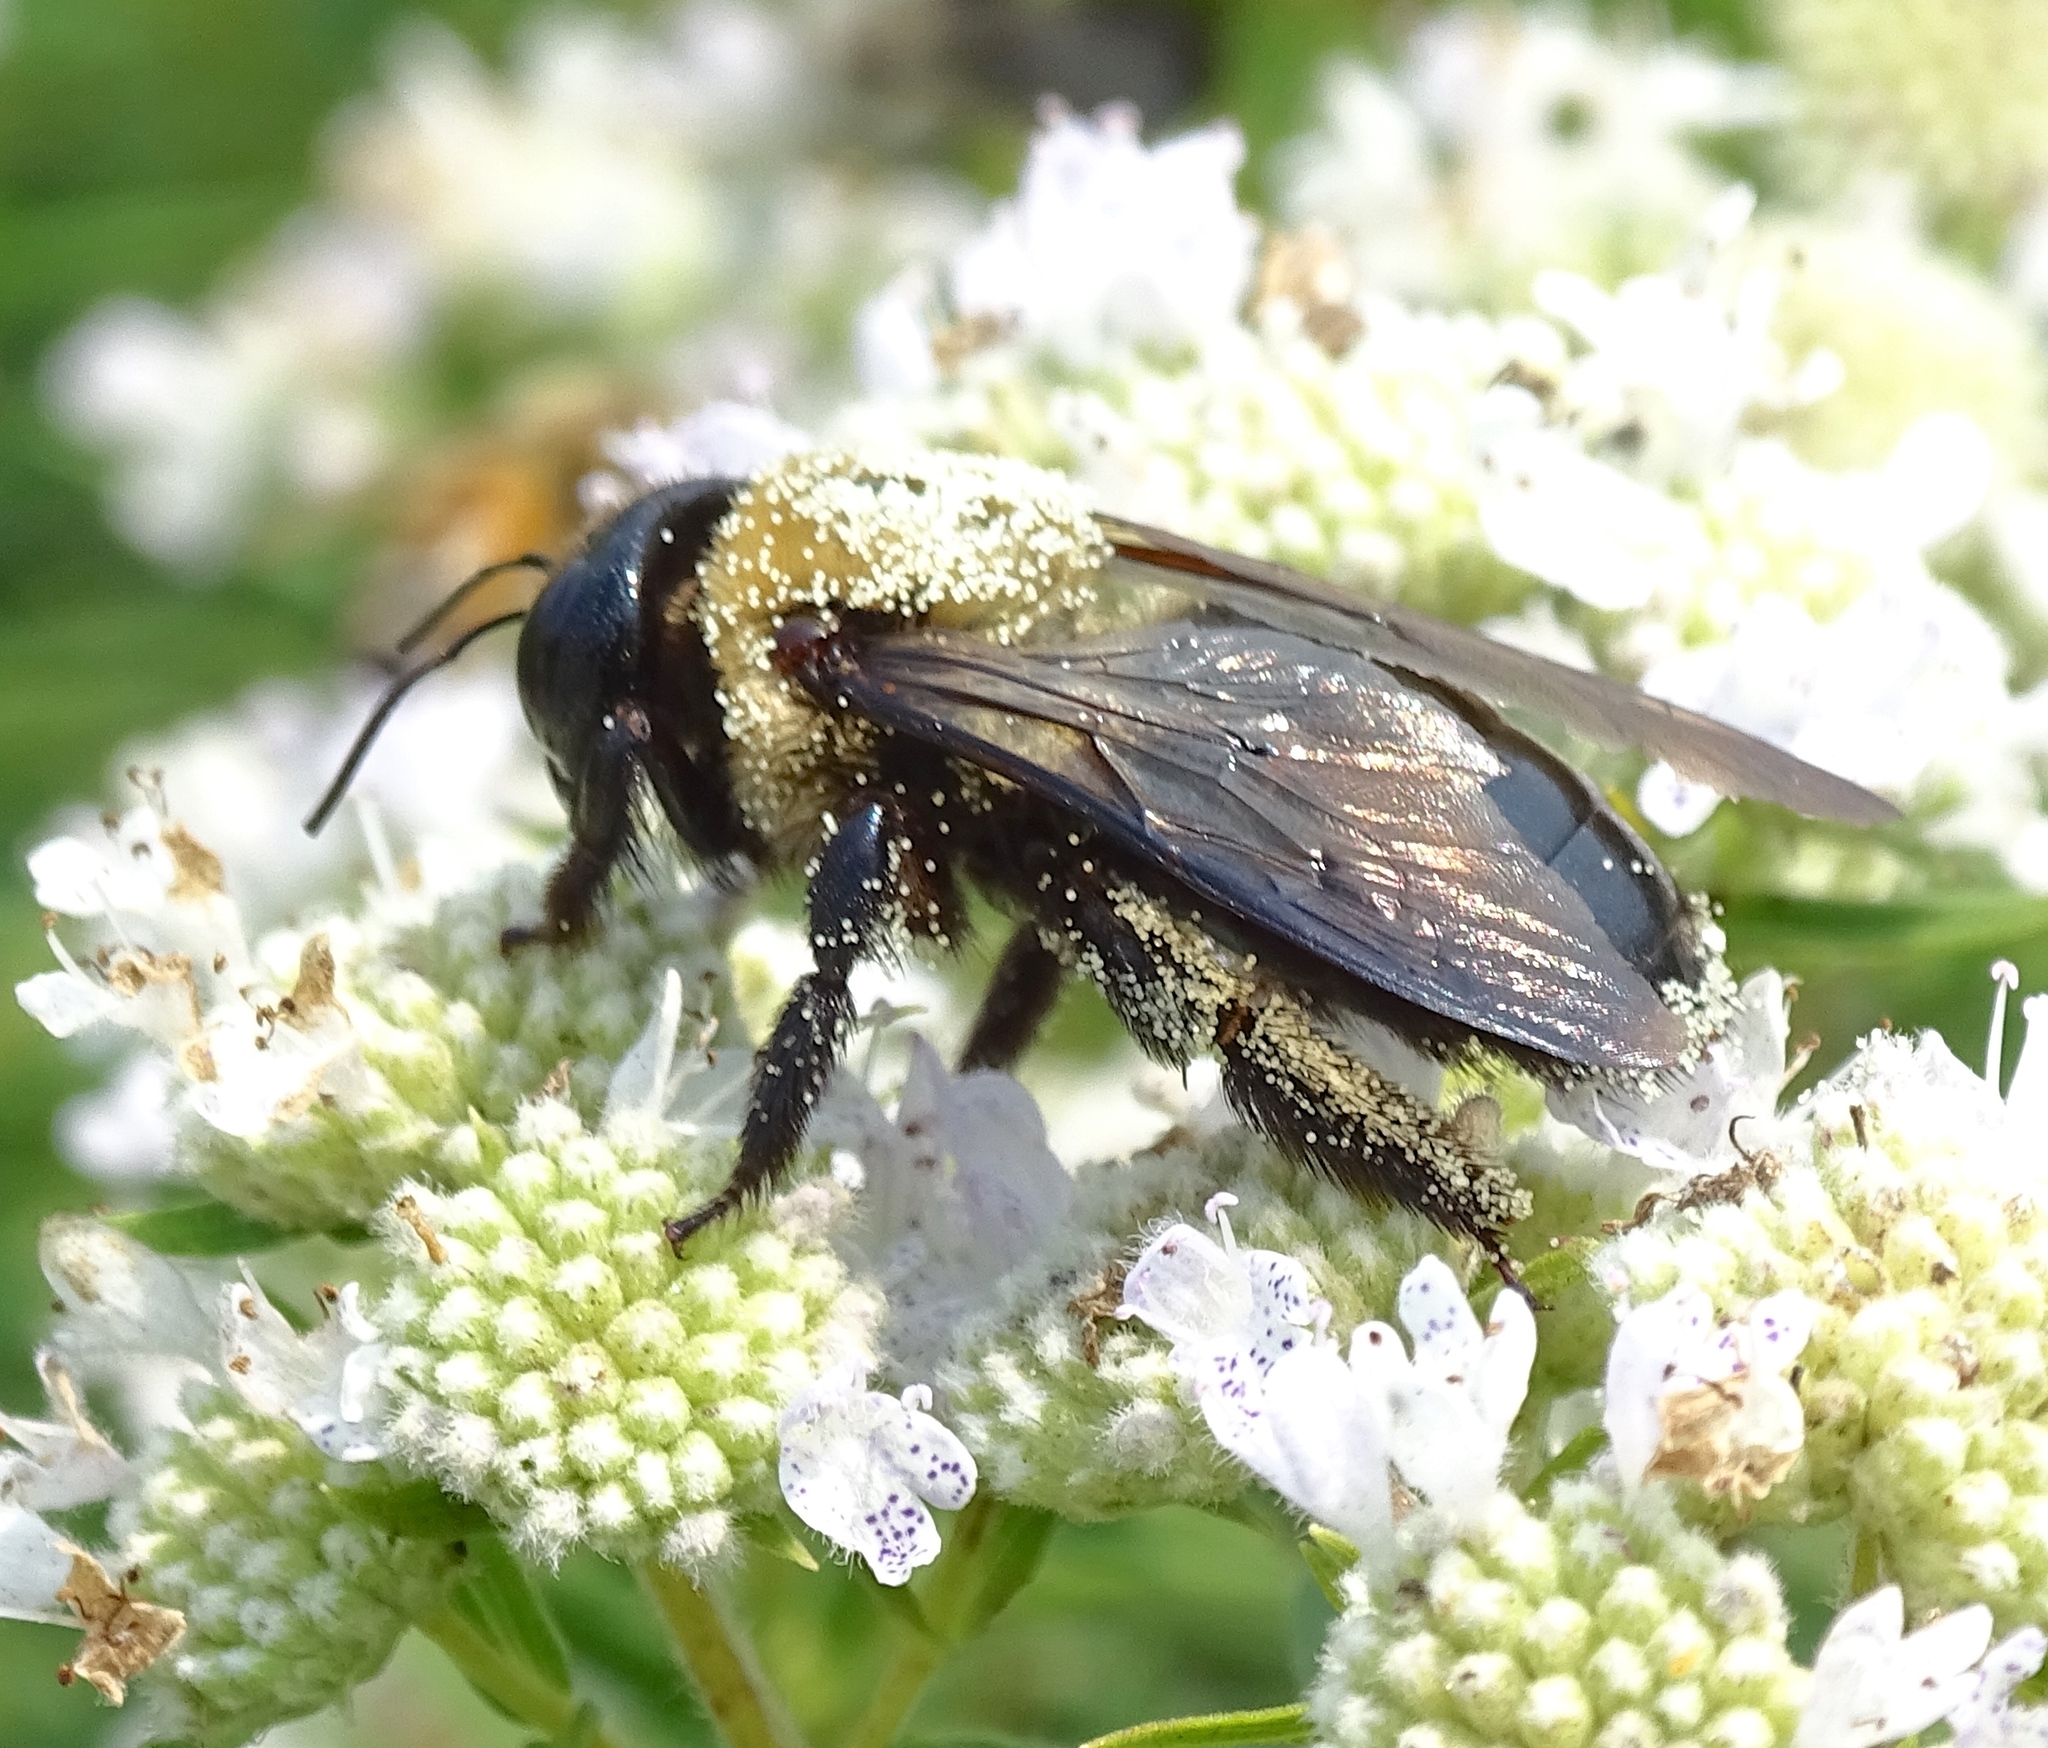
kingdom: Animalia
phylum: Arthropoda
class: Insecta
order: Hymenoptera
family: Apidae
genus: Xylocopa
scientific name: Xylocopa virginica
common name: Carpenter bee
